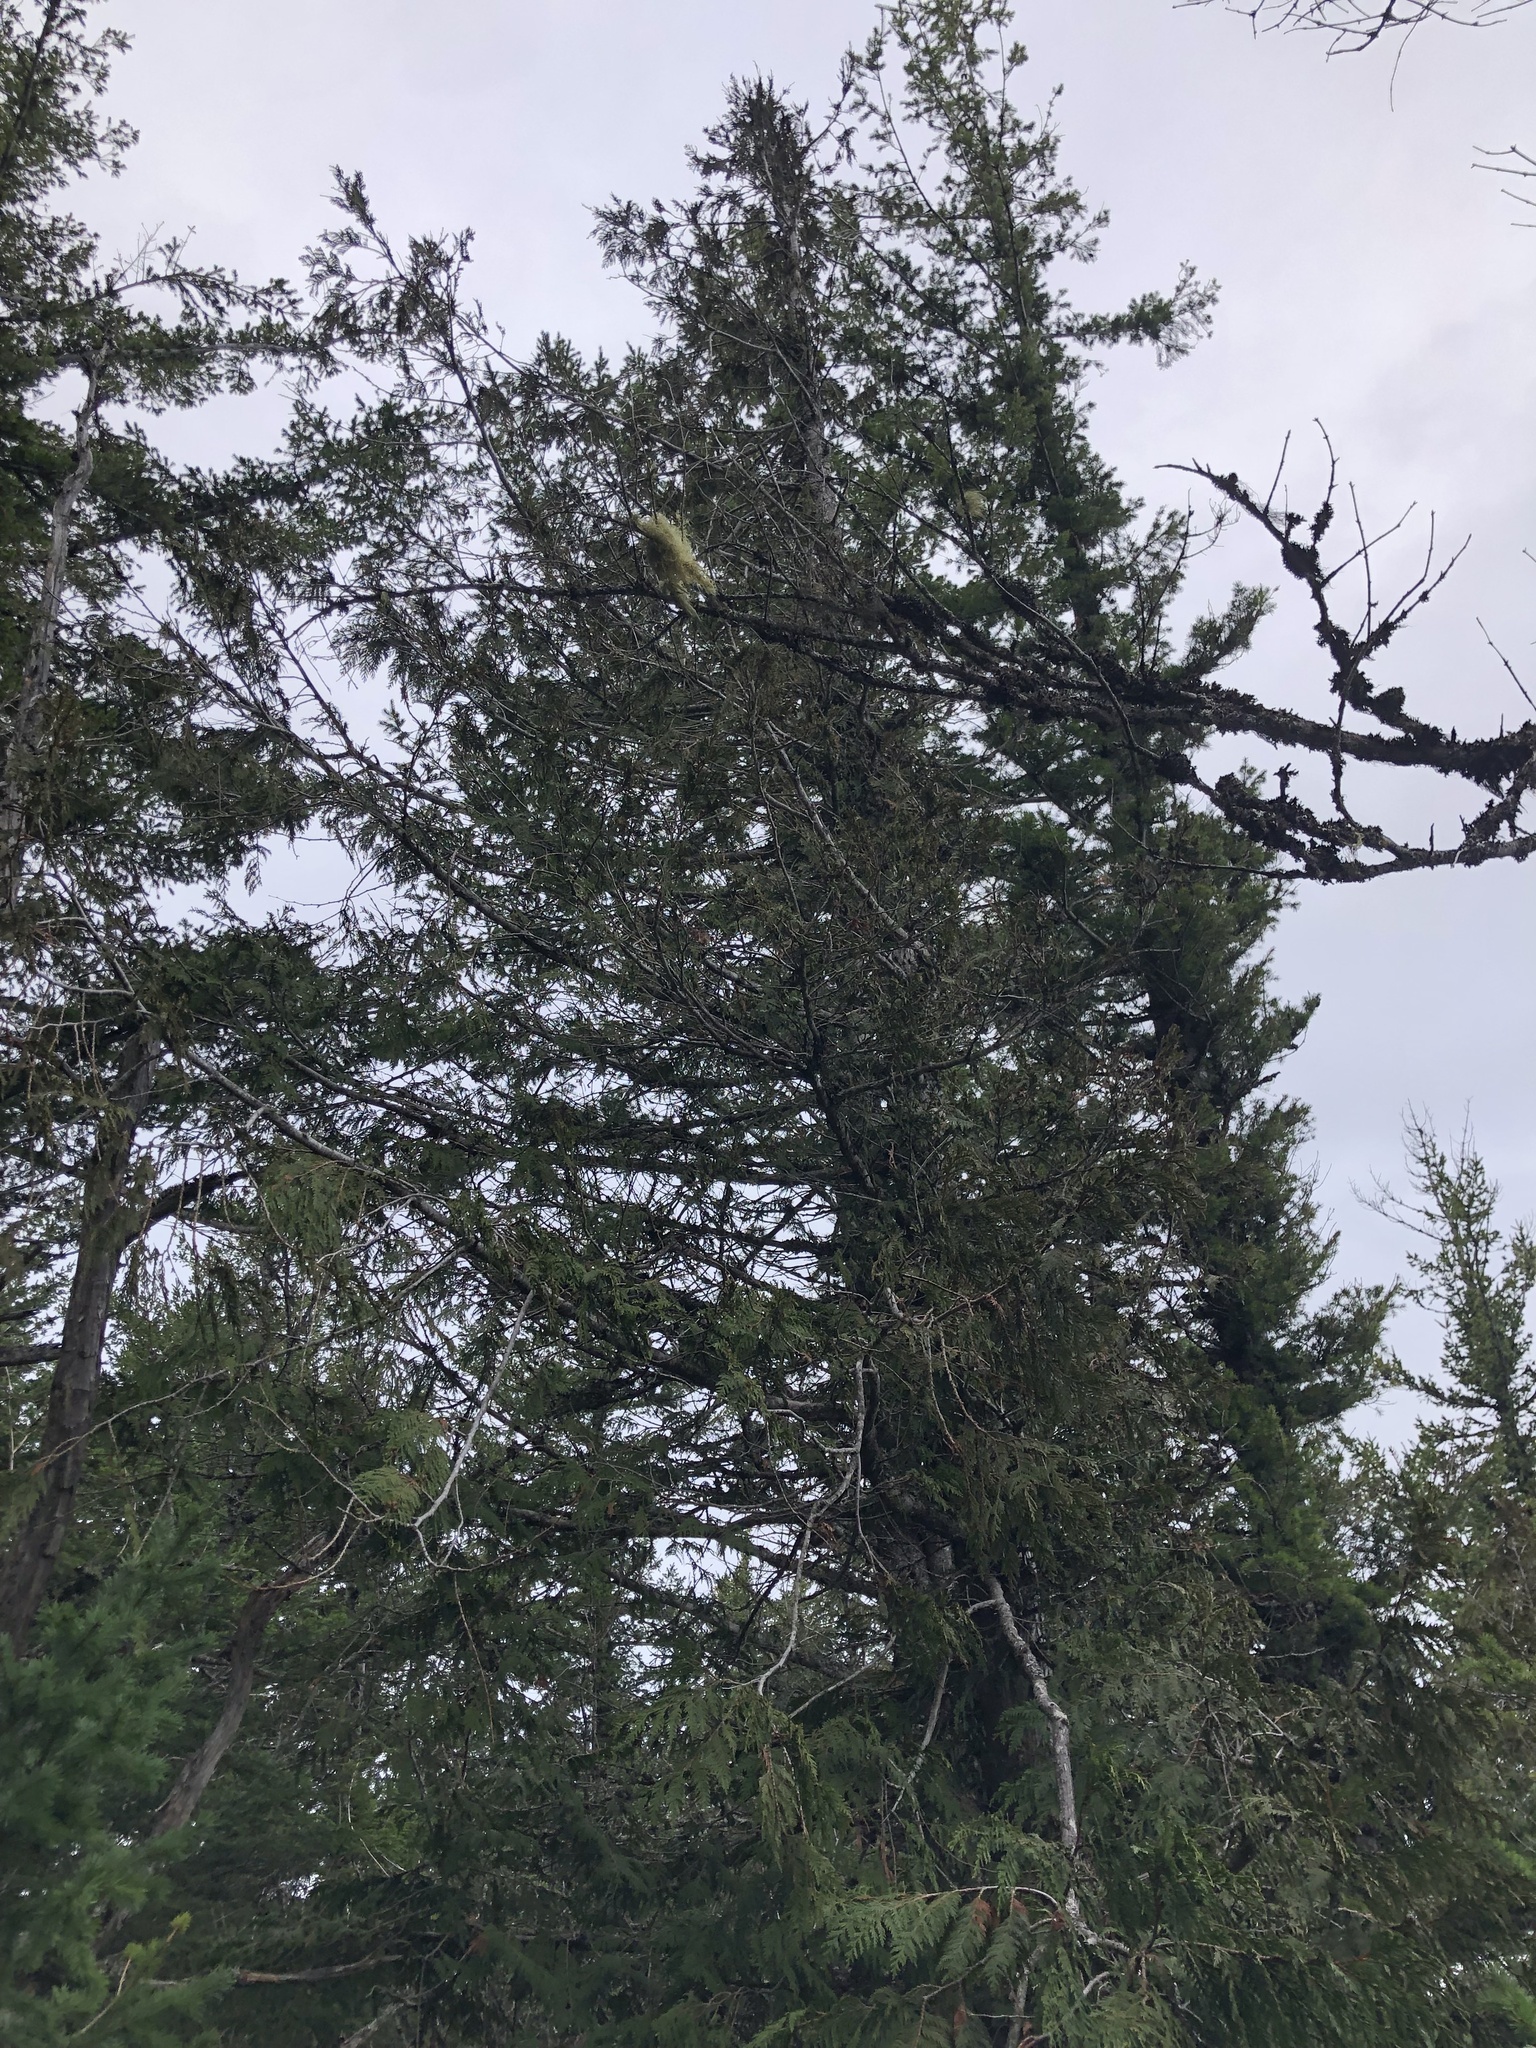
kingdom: Plantae
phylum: Tracheophyta
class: Pinopsida
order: Pinales
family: Cupressaceae
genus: Thuja
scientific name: Thuja plicata
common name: Western red-cedar
